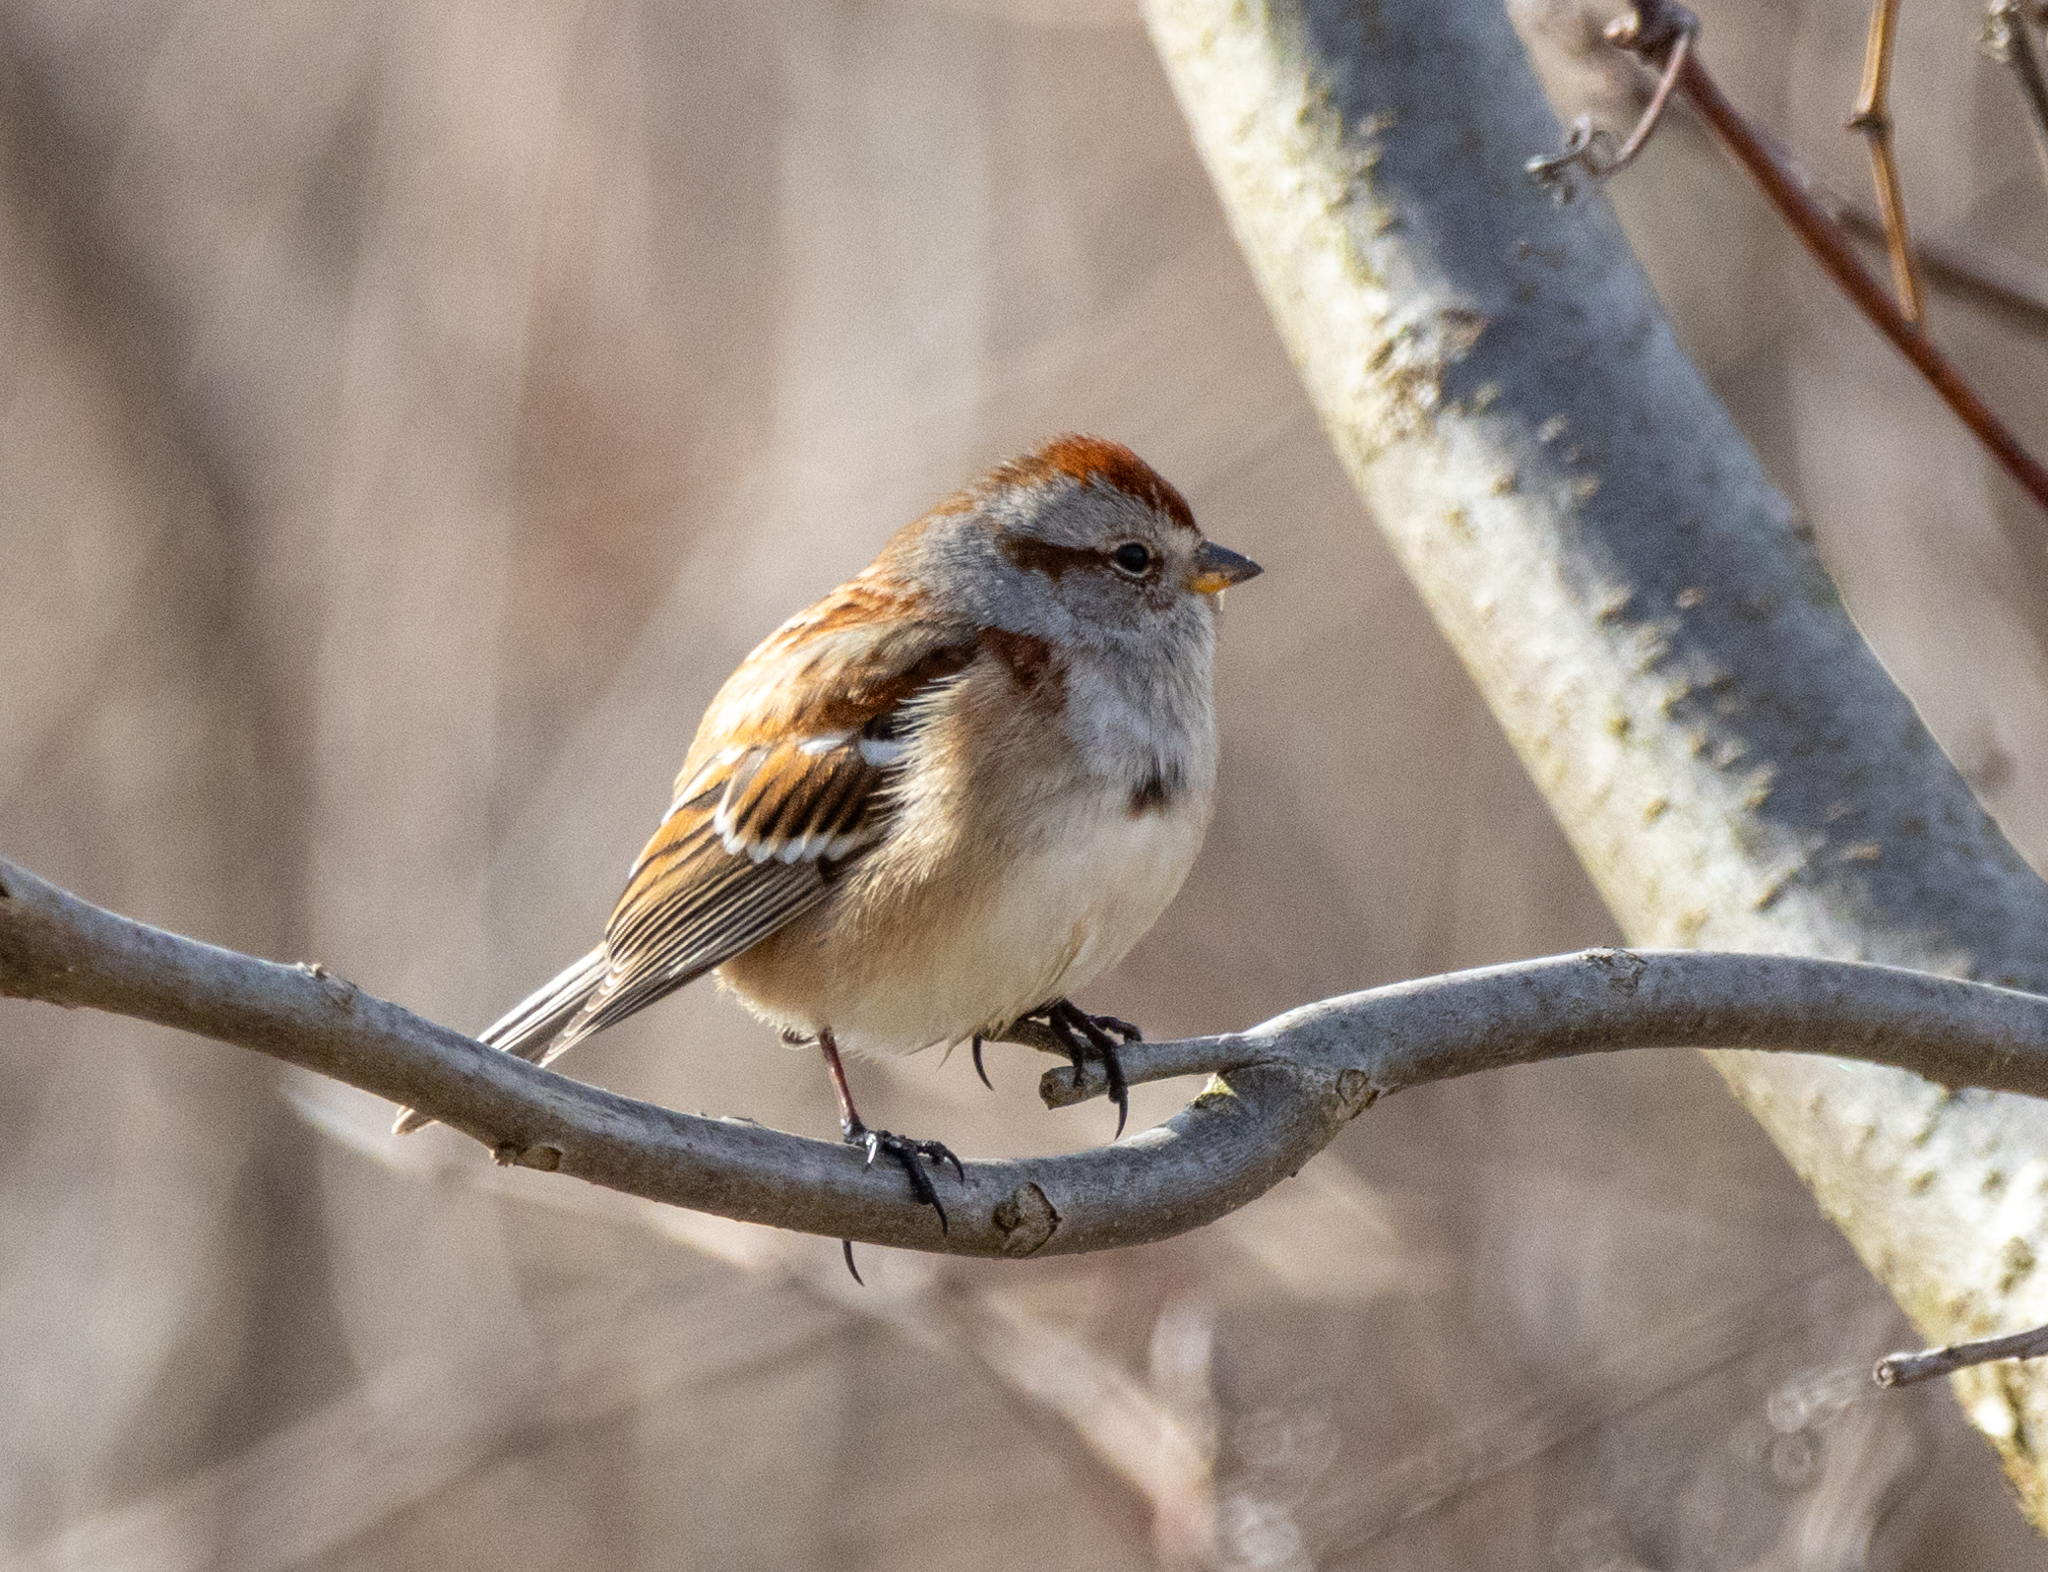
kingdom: Animalia
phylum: Chordata
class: Aves
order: Passeriformes
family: Passerellidae
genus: Spizelloides
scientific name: Spizelloides arborea
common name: American tree sparrow
